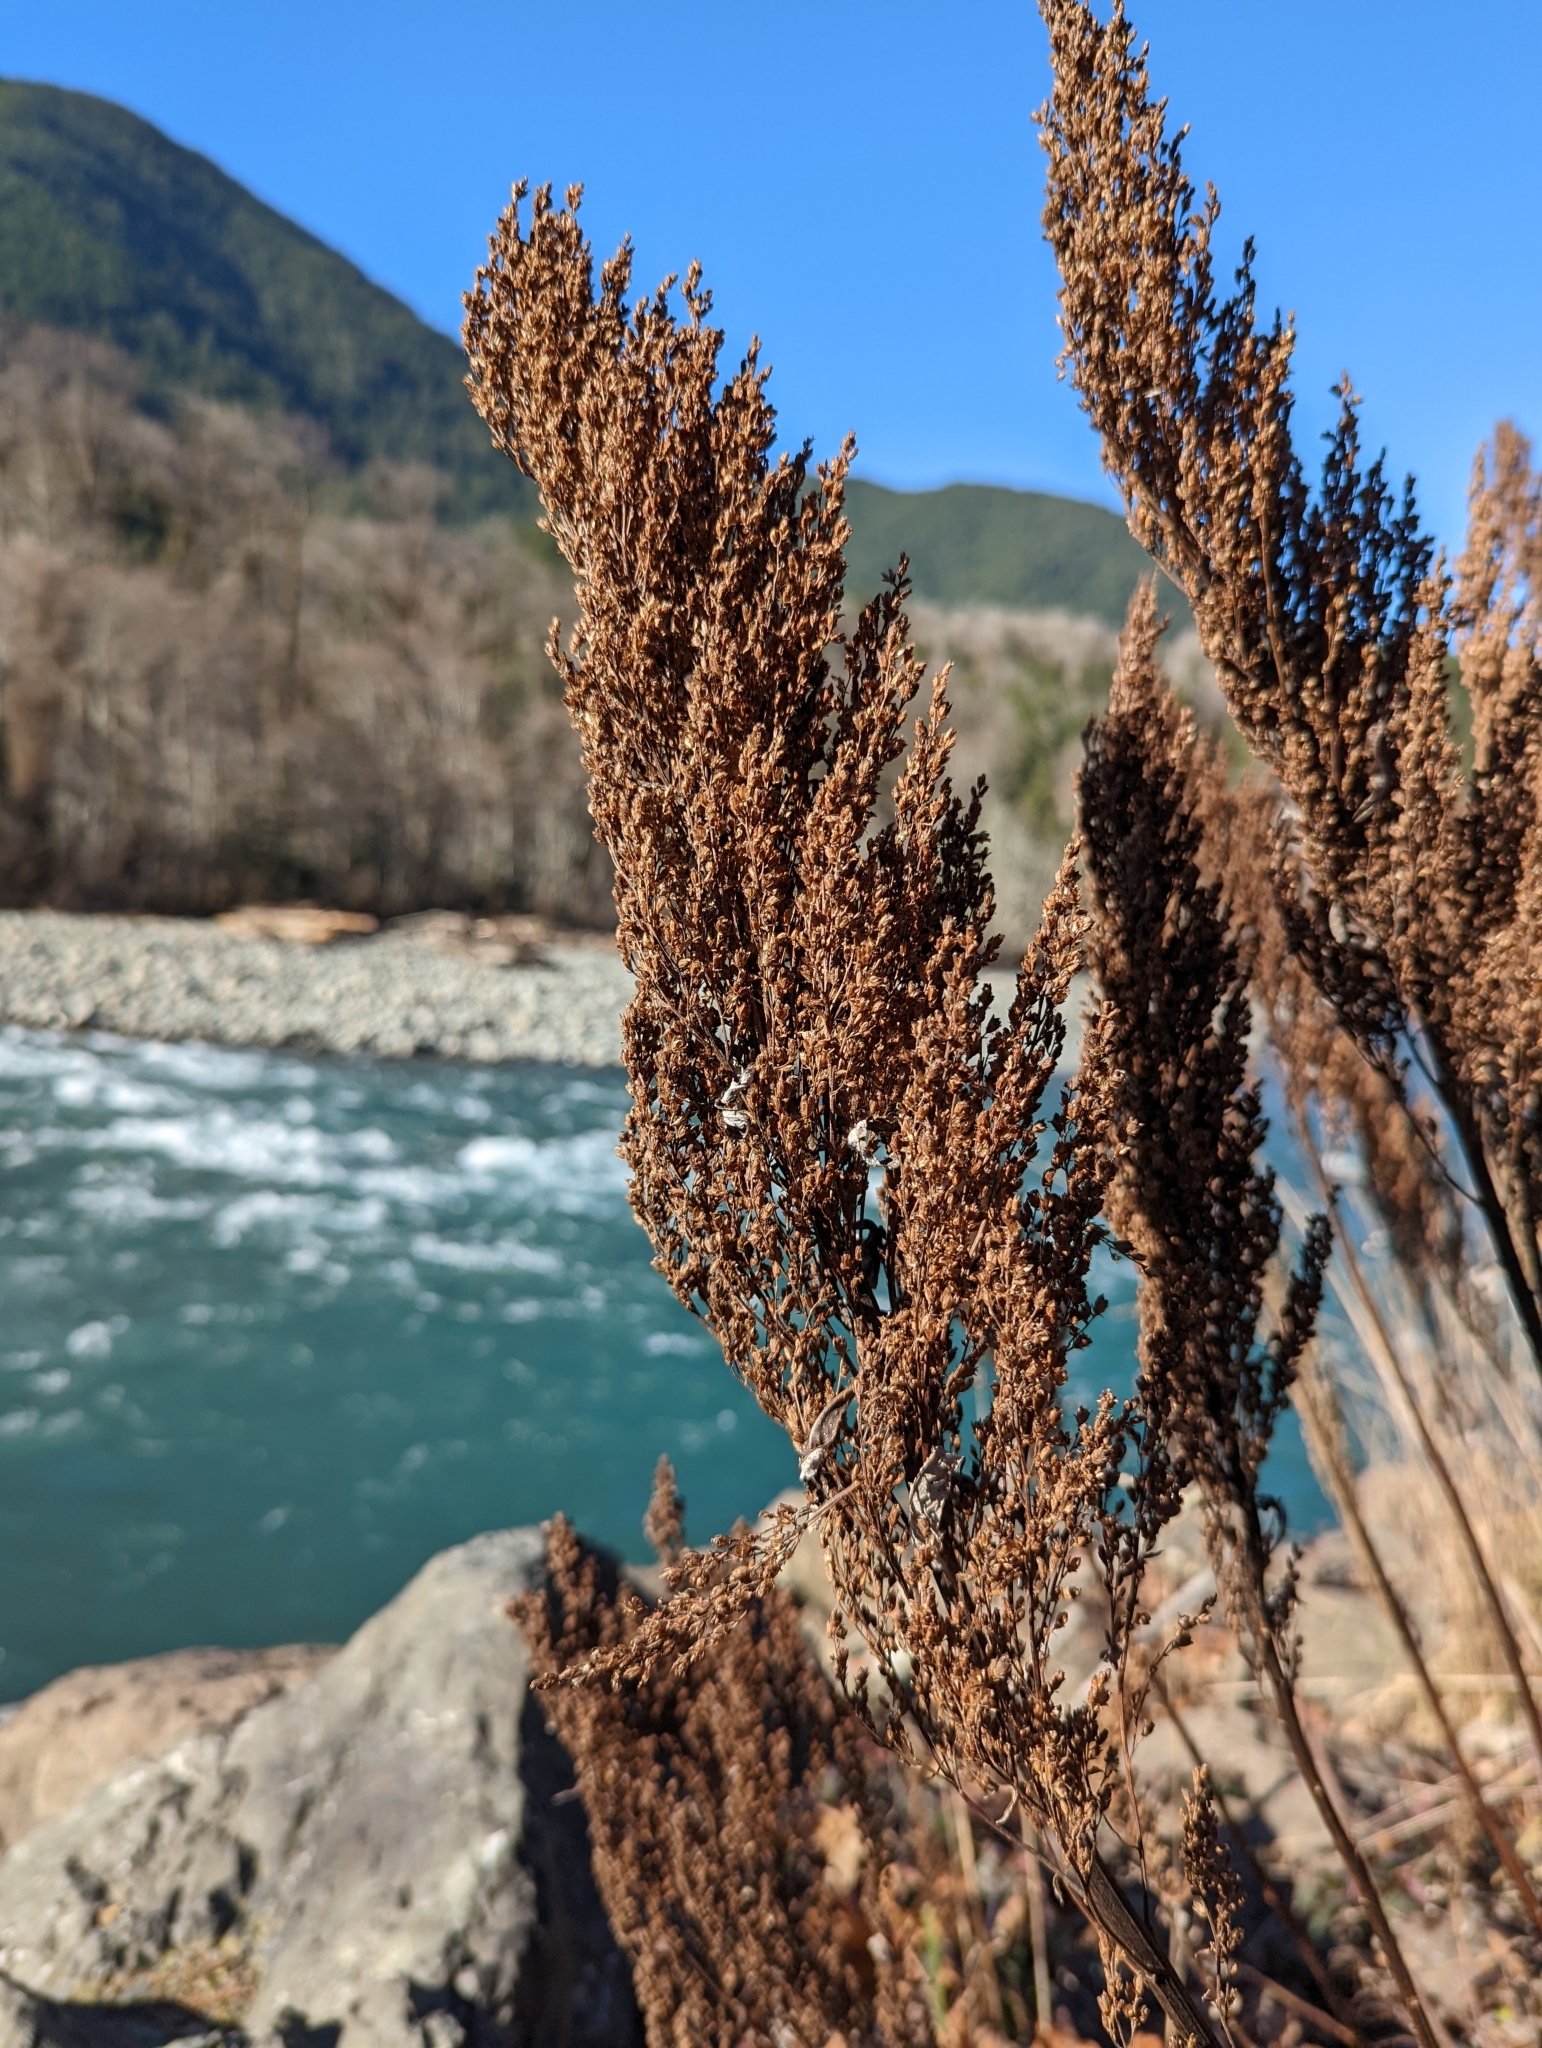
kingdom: Plantae
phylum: Tracheophyta
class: Magnoliopsida
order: Asterales
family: Asteraceae
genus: Artemisia
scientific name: Artemisia suksdorfii
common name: Suksdorf sagewort
